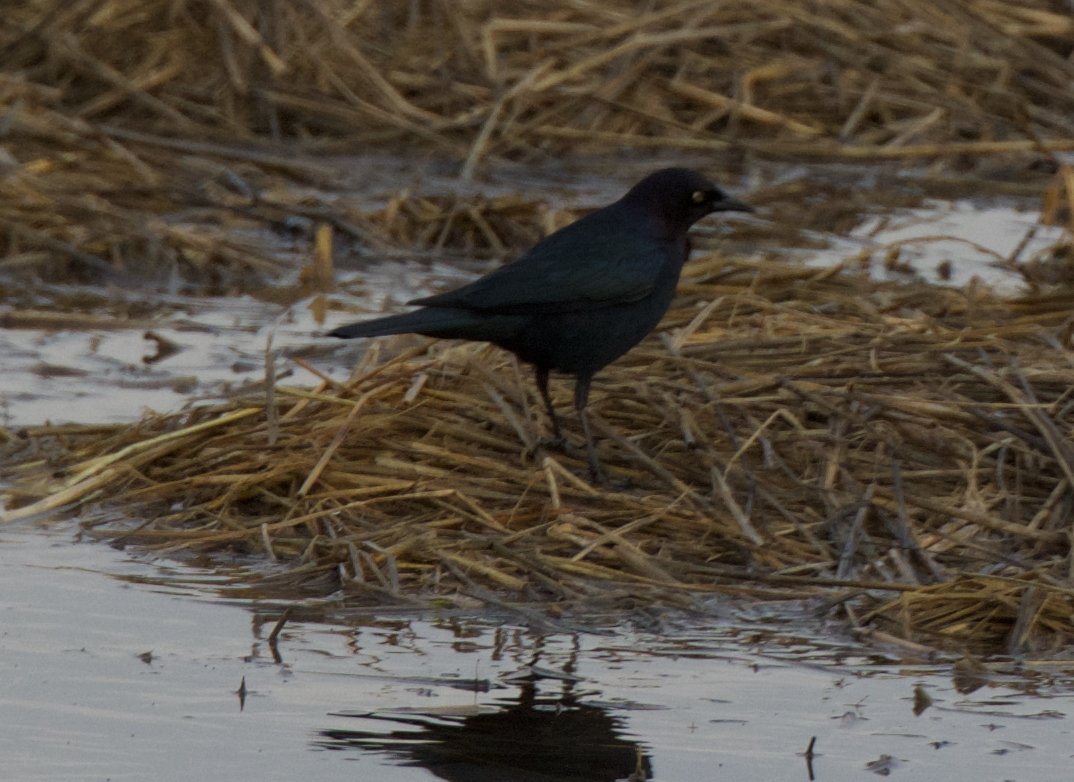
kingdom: Animalia
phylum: Chordata
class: Aves
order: Passeriformes
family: Icteridae
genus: Euphagus
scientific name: Euphagus cyanocephalus
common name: Brewer's blackbird
